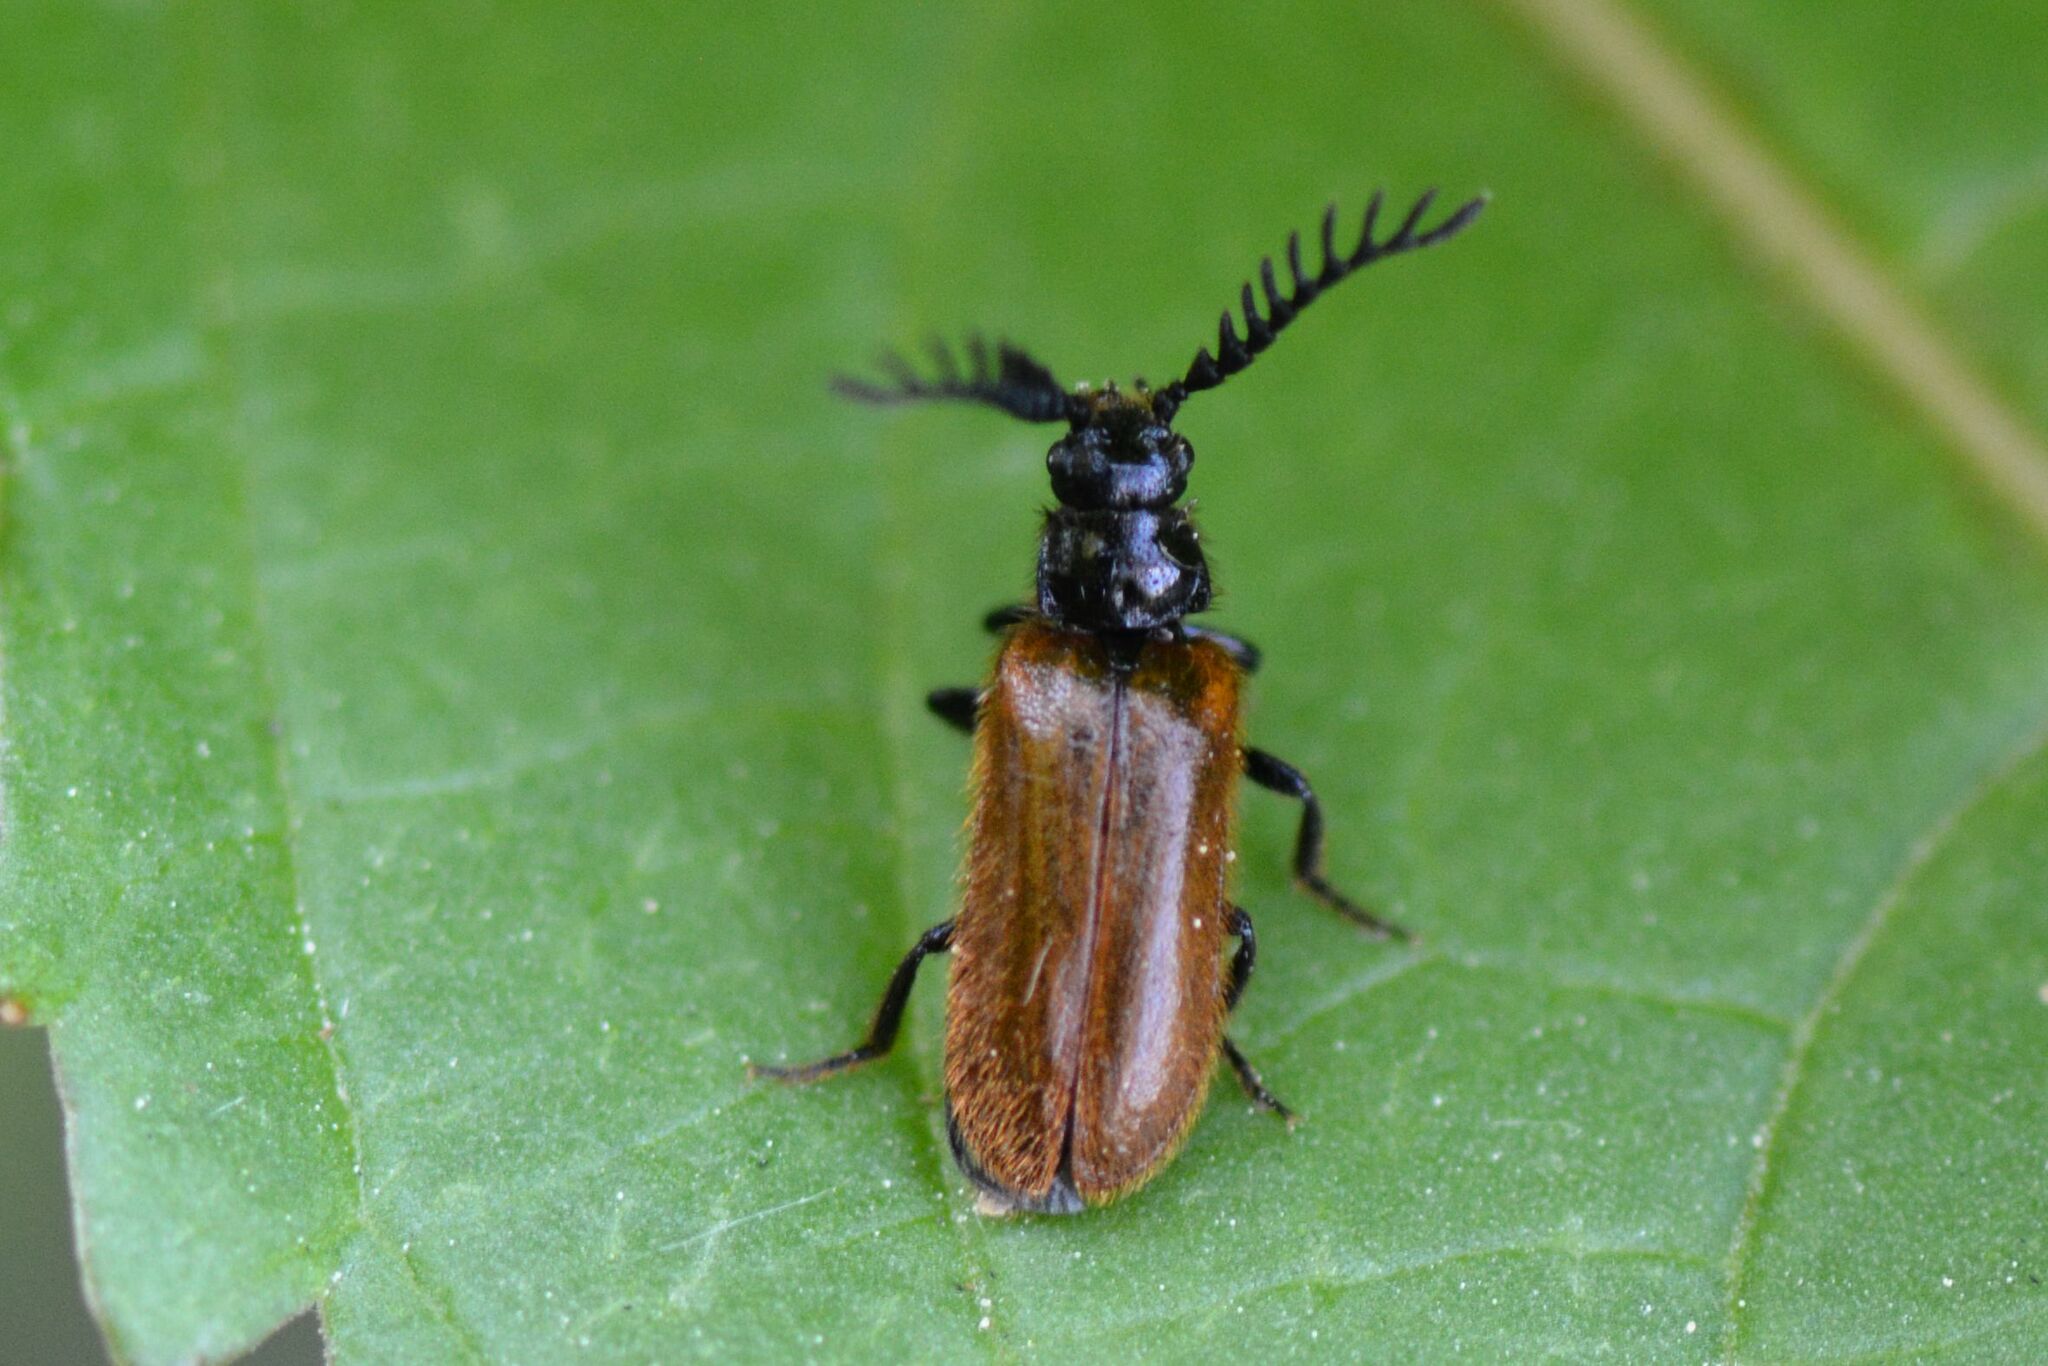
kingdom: Animalia
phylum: Arthropoda
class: Insecta
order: Coleoptera
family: Drilidae
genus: Drilus
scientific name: Drilus flavescens
